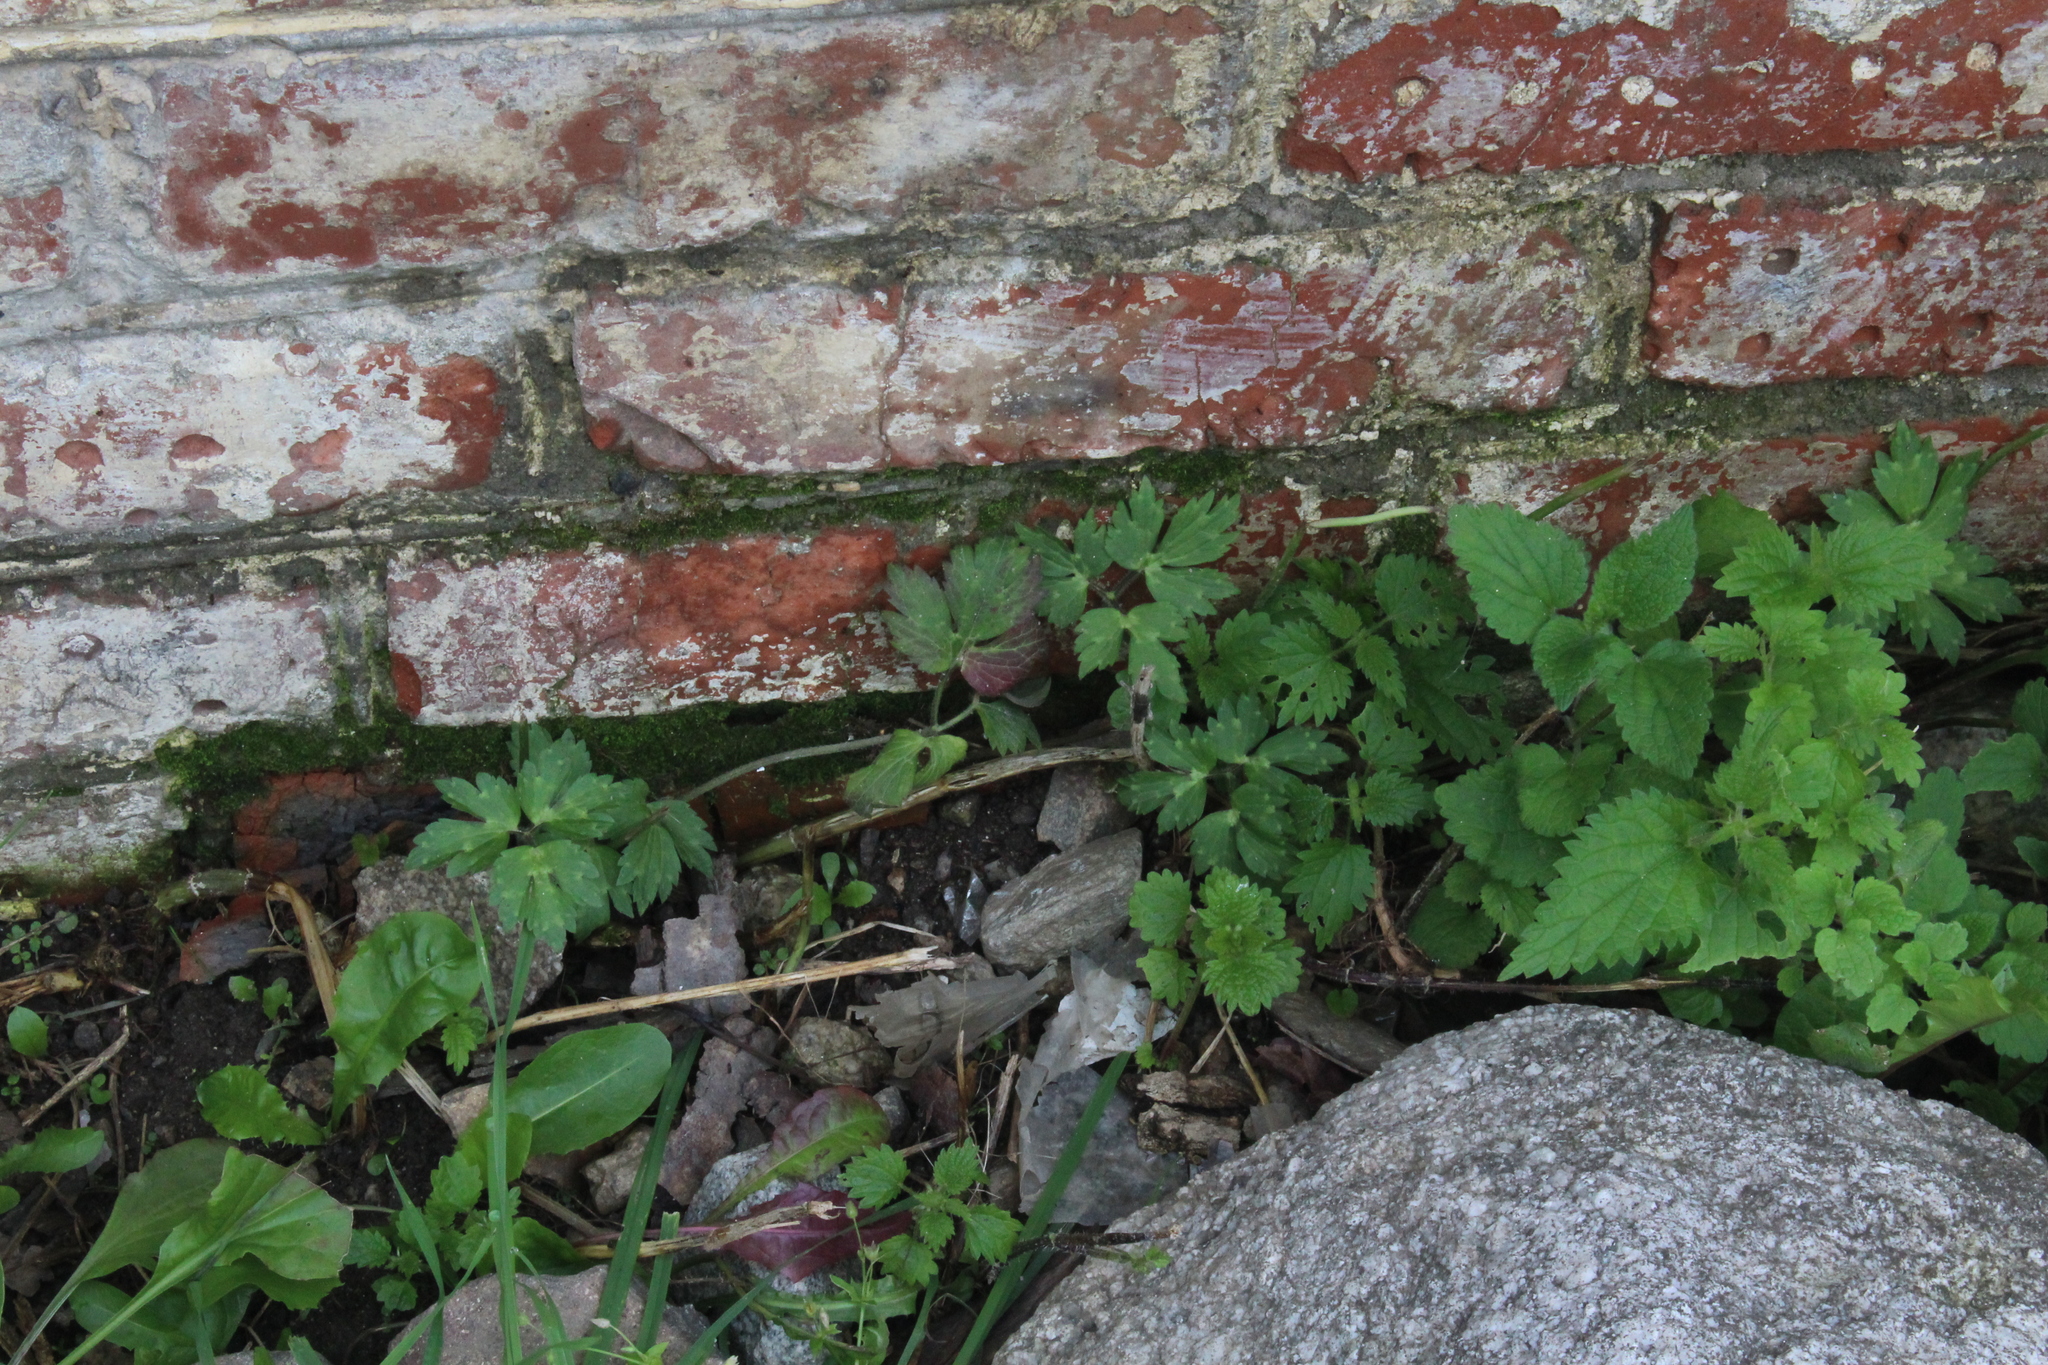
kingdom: Plantae
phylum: Tracheophyta
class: Magnoliopsida
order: Ranunculales
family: Ranunculaceae
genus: Ranunculus
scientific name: Ranunculus repens
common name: Creeping buttercup
